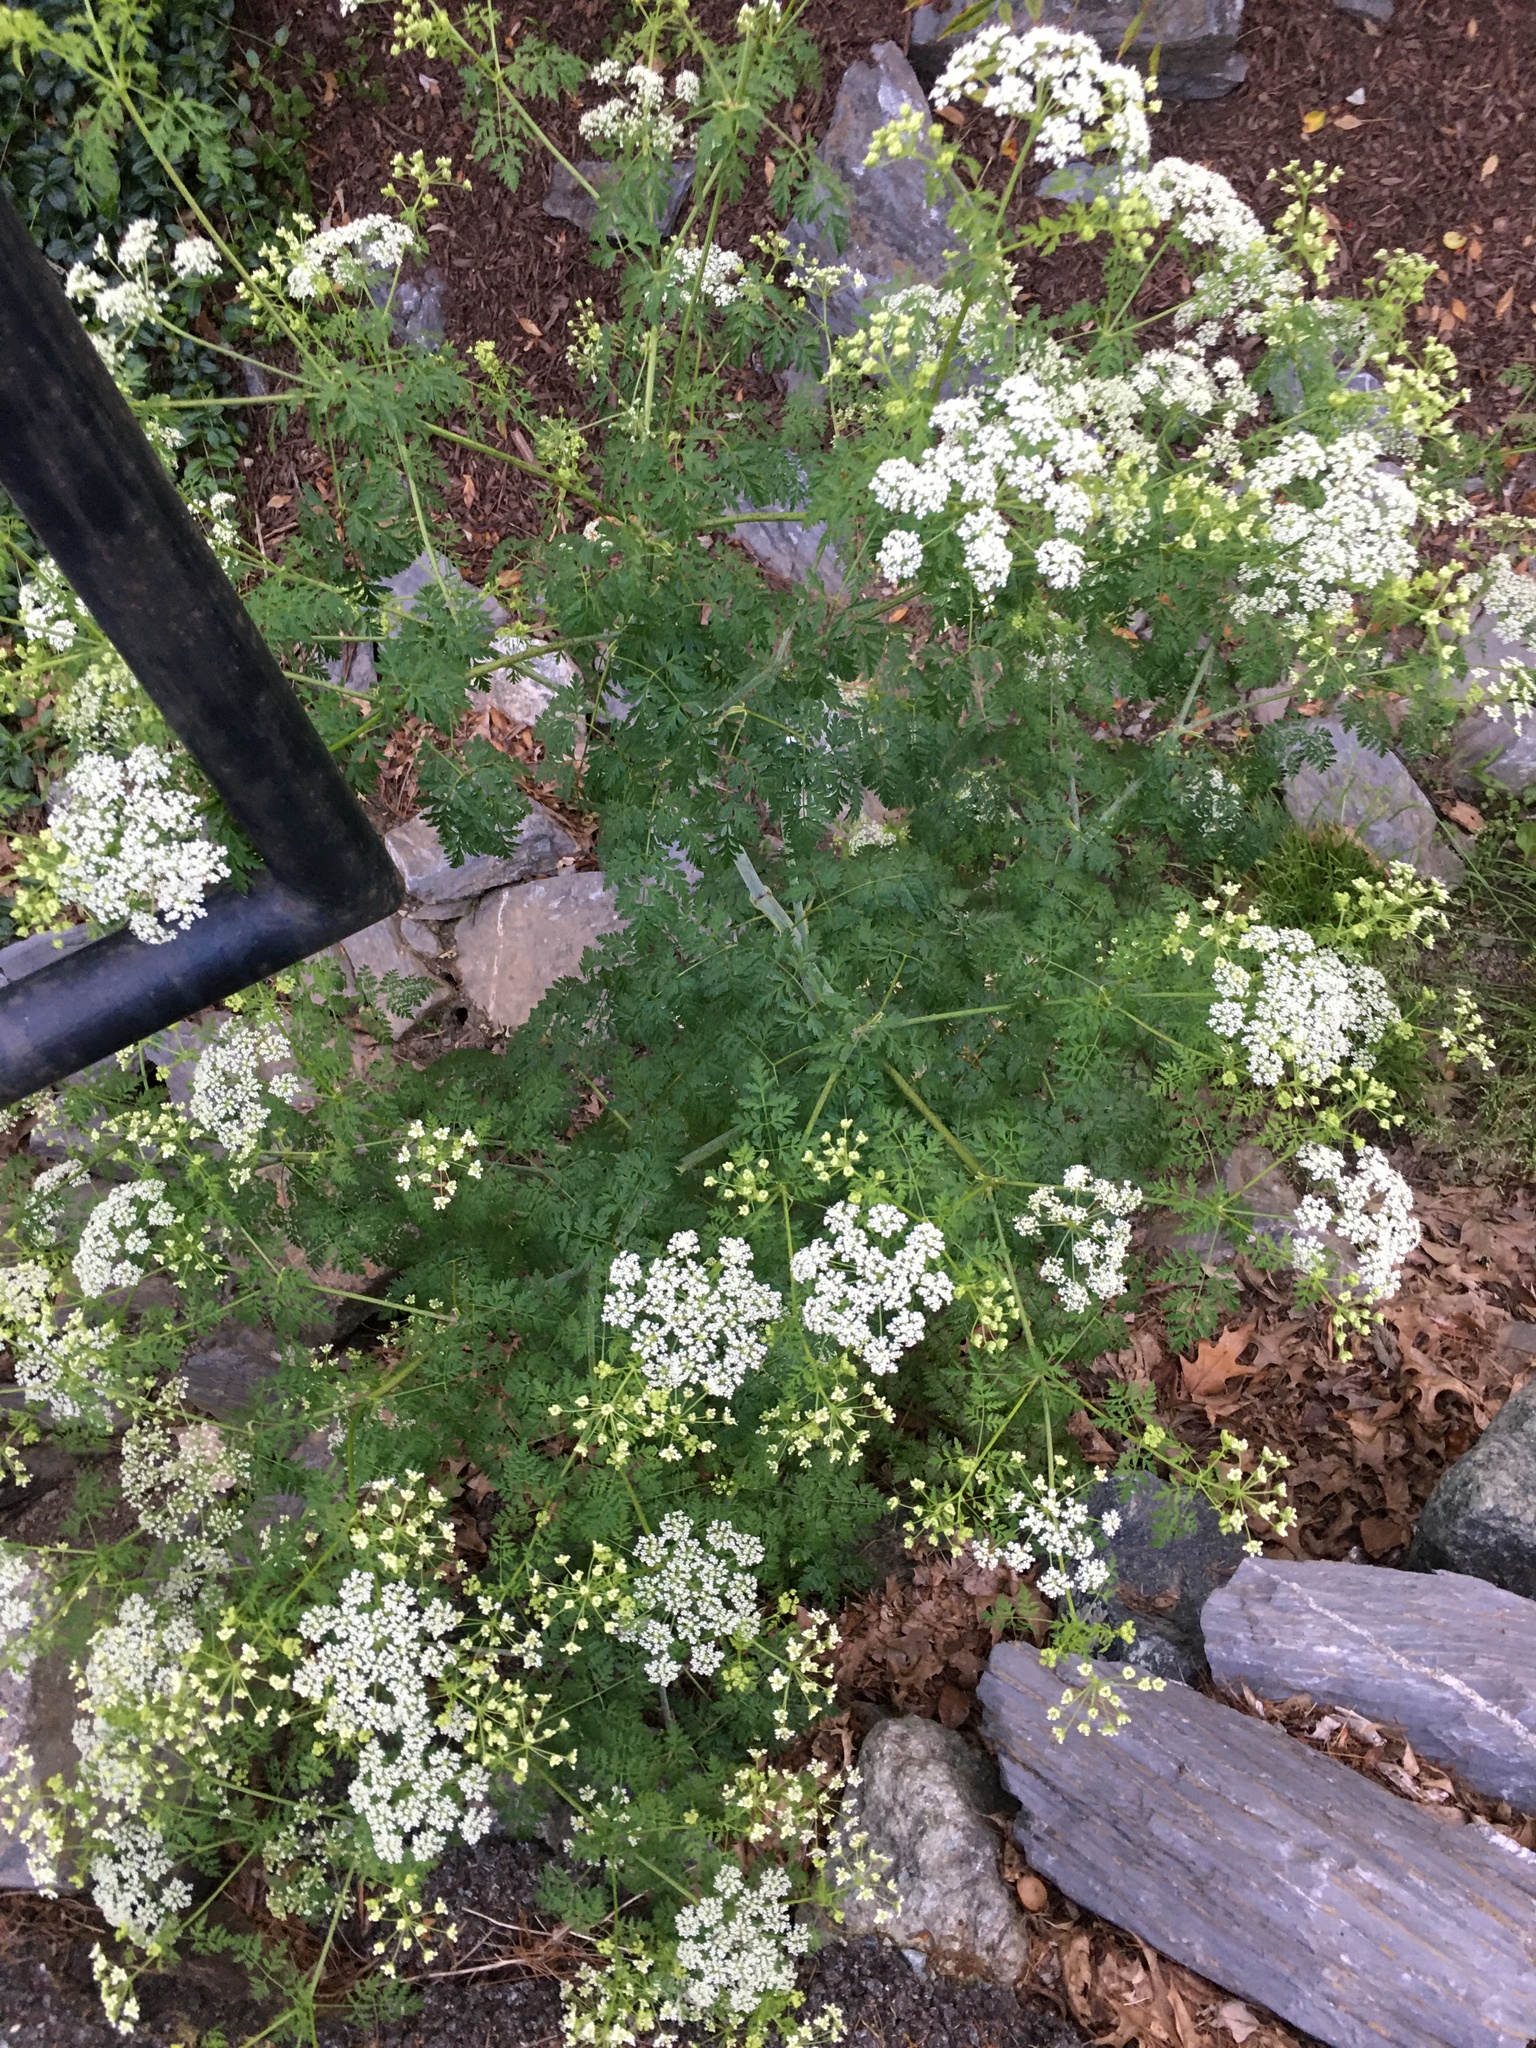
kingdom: Plantae
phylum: Tracheophyta
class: Magnoliopsida
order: Apiales
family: Apiaceae
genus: Conium
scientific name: Conium maculatum
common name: Hemlock
